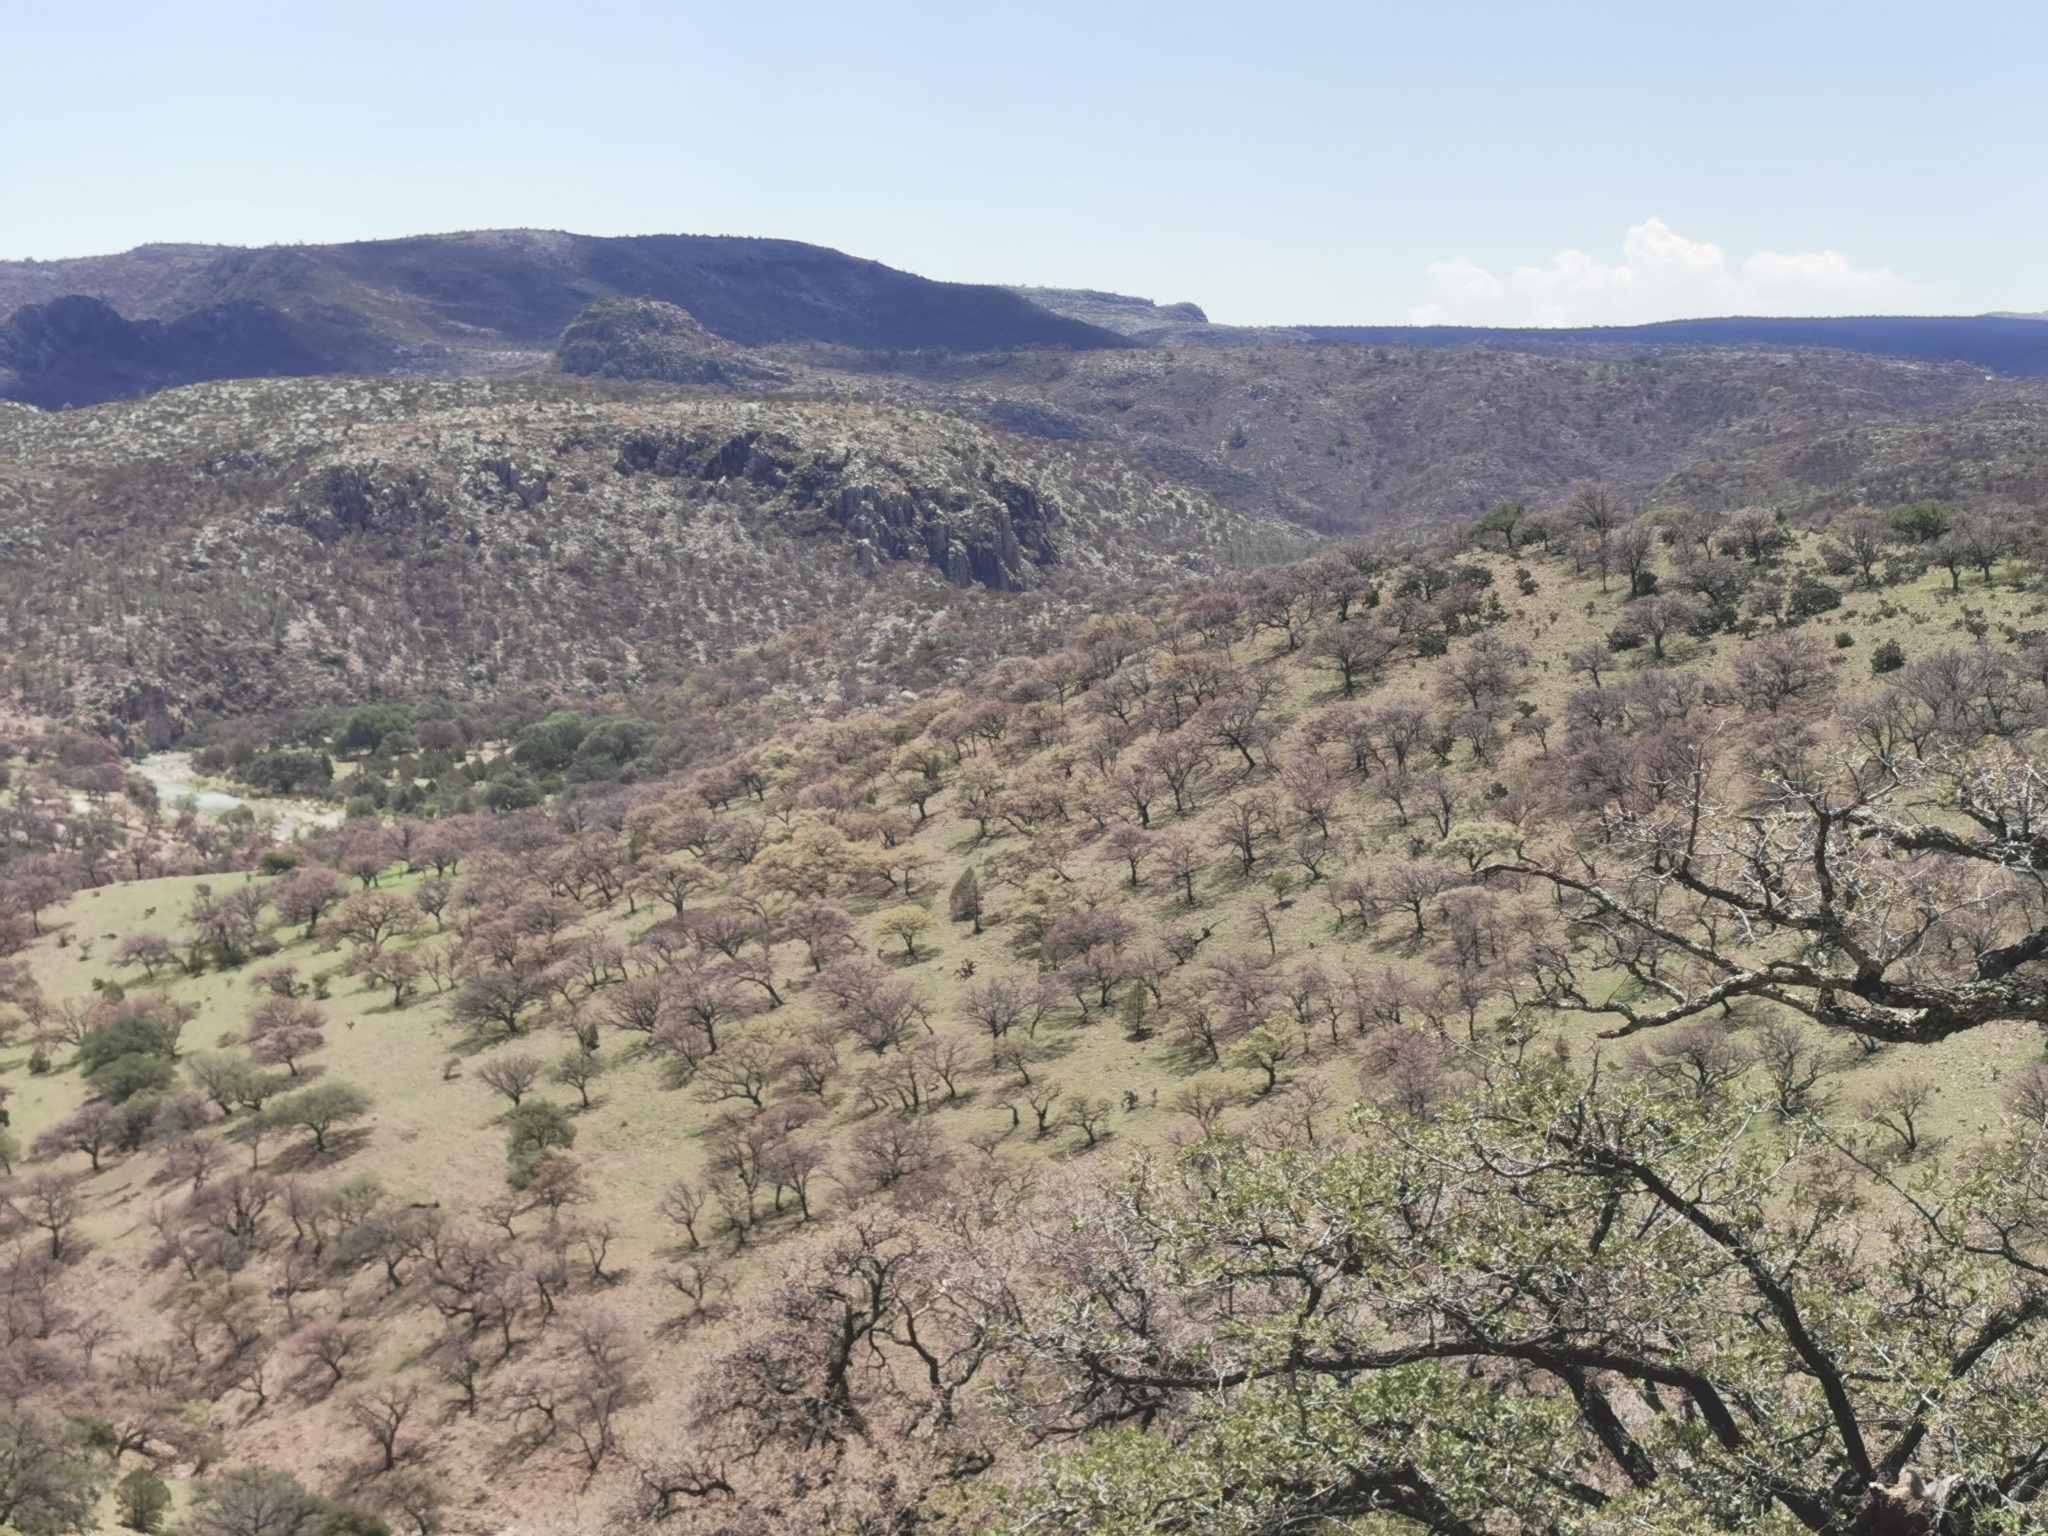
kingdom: Plantae
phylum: Tracheophyta
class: Magnoliopsida
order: Fagales
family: Fagaceae
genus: Quercus
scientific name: Quercus grisea
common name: Gray oak
